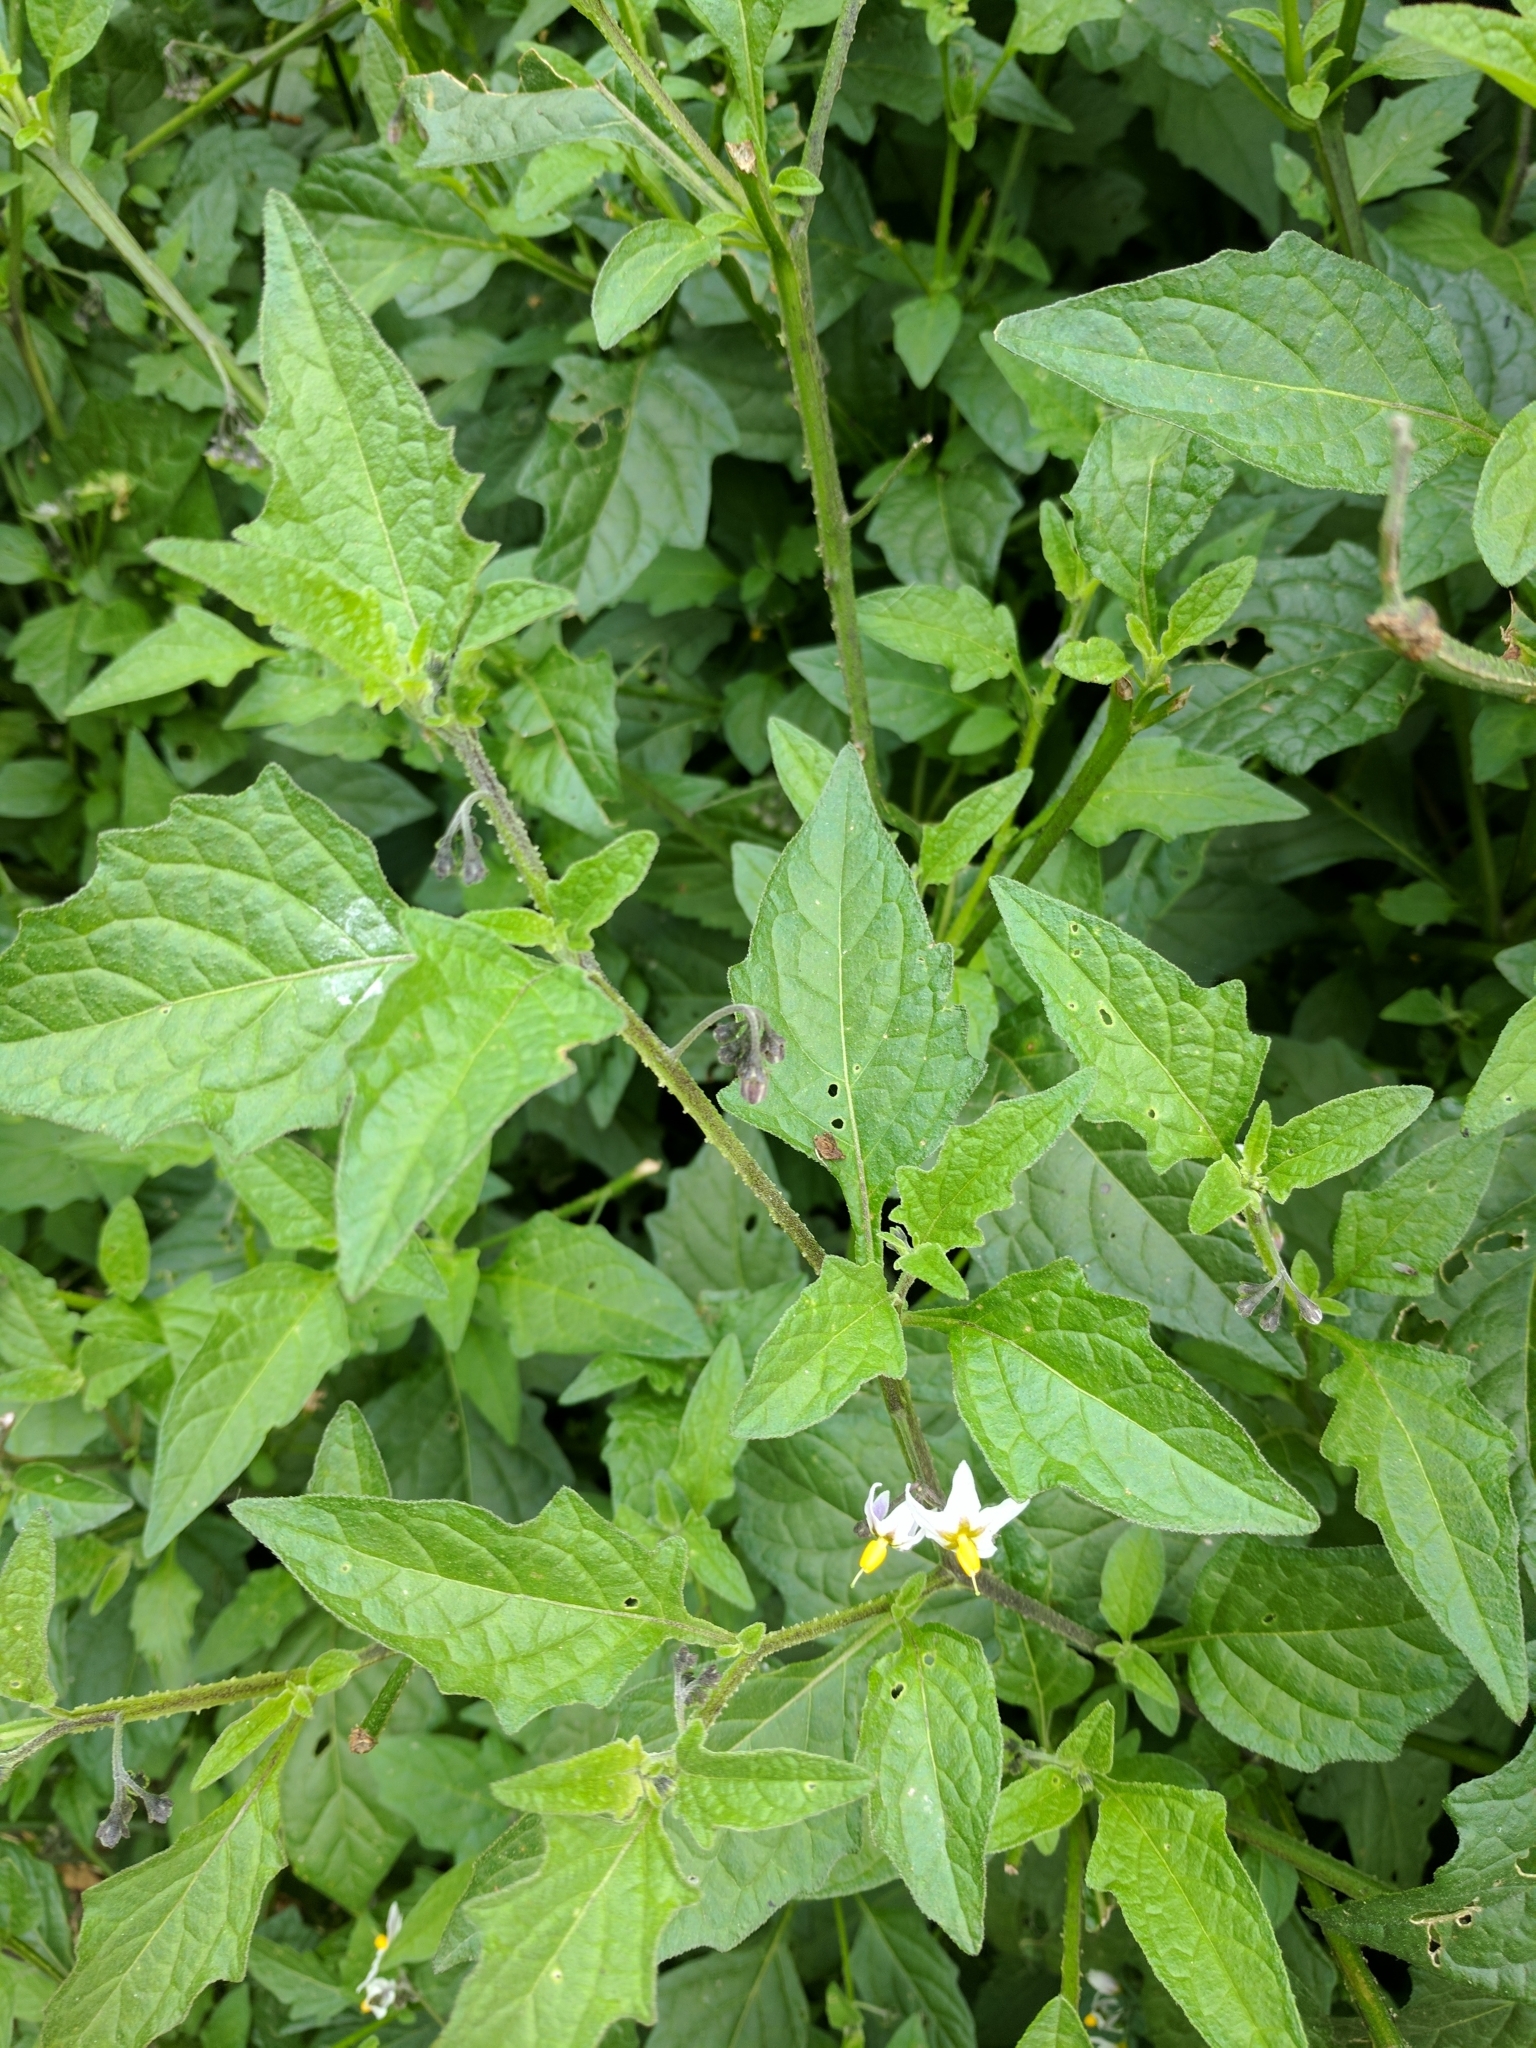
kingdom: Plantae
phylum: Tracheophyta
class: Magnoliopsida
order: Solanales
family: Solanaceae
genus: Solanum
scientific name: Solanum douglasii
